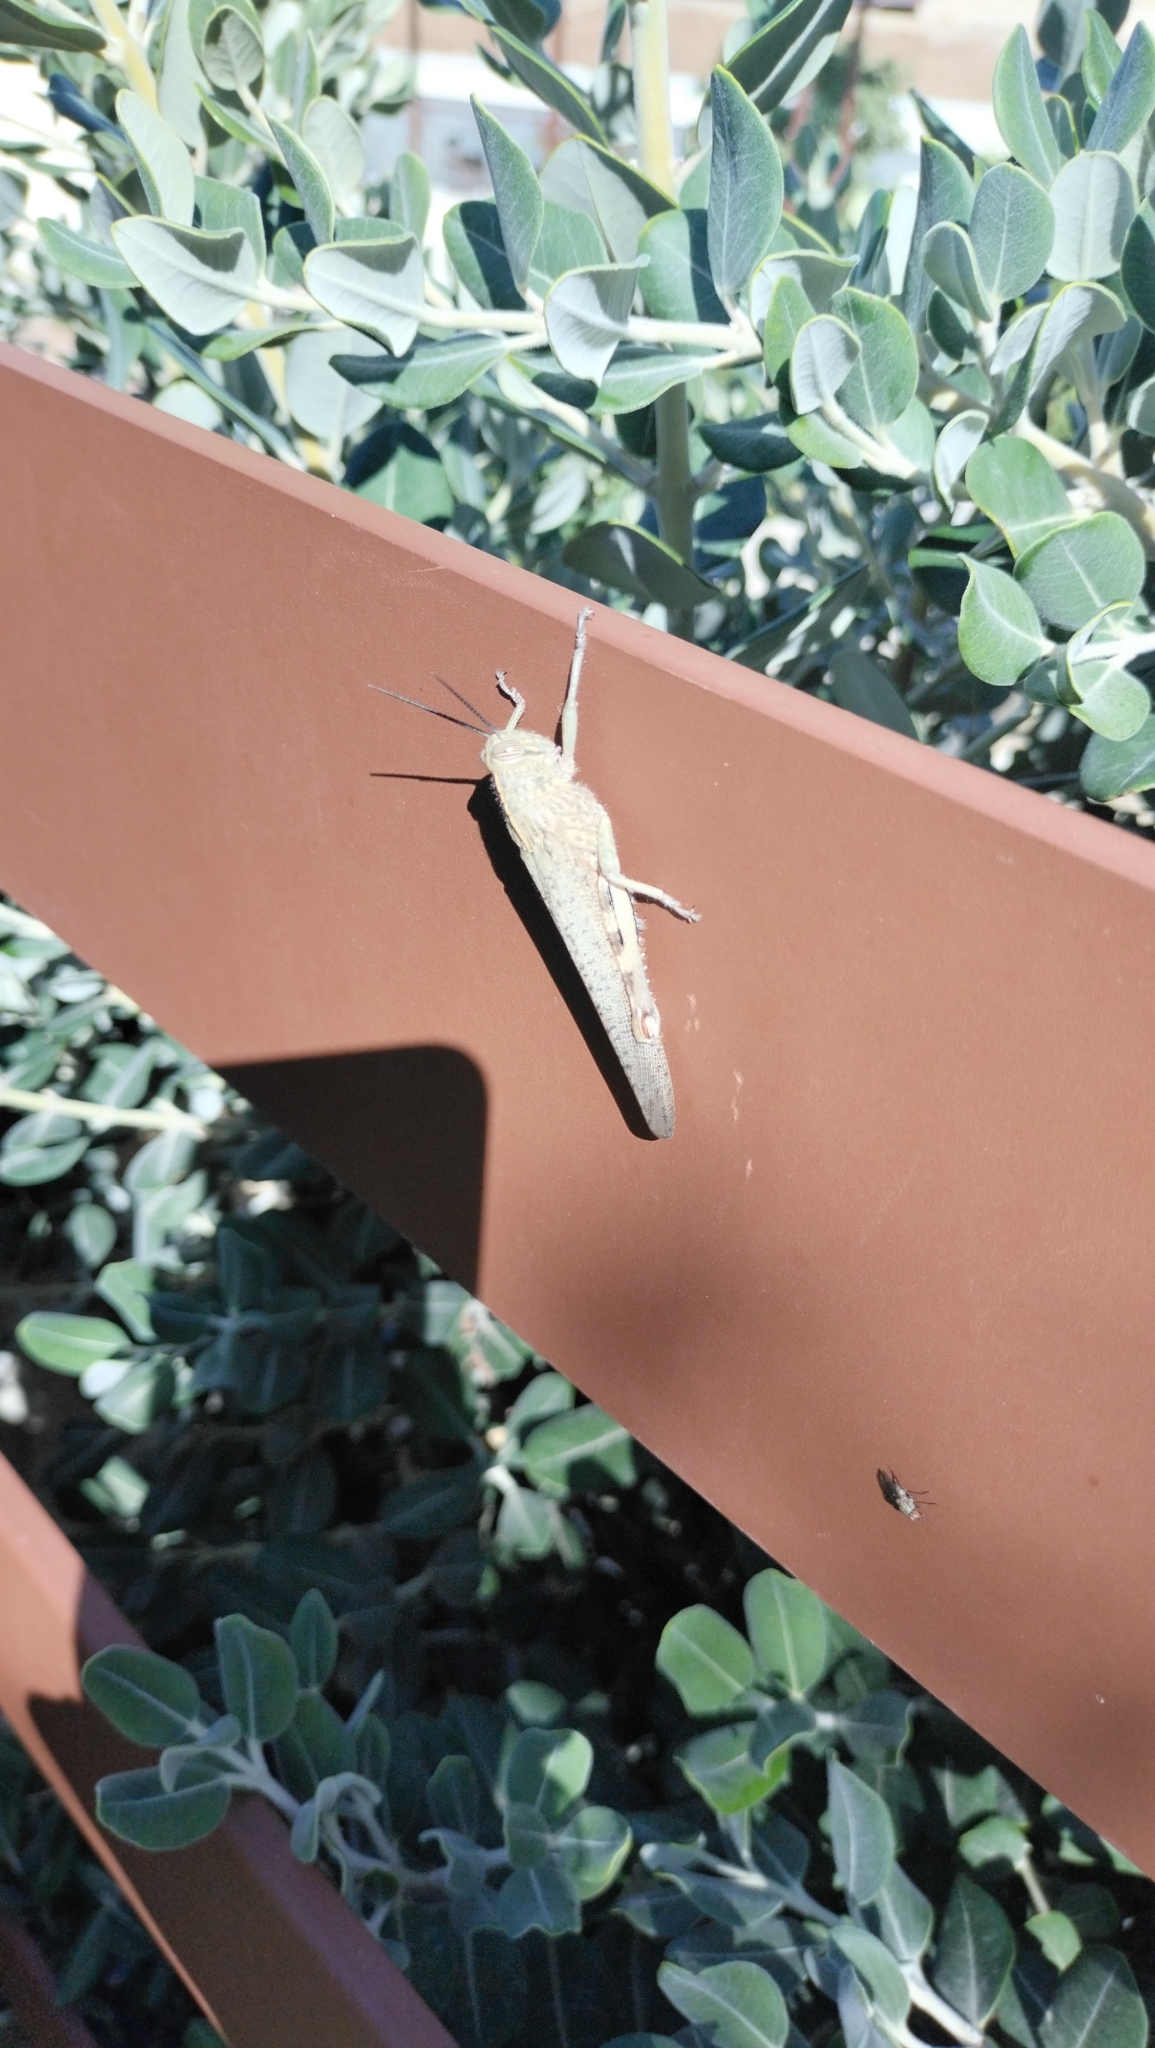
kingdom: Animalia
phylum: Arthropoda
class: Insecta
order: Orthoptera
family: Acrididae
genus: Anacridium
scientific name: Anacridium aegyptium
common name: Egyptian grasshopper
